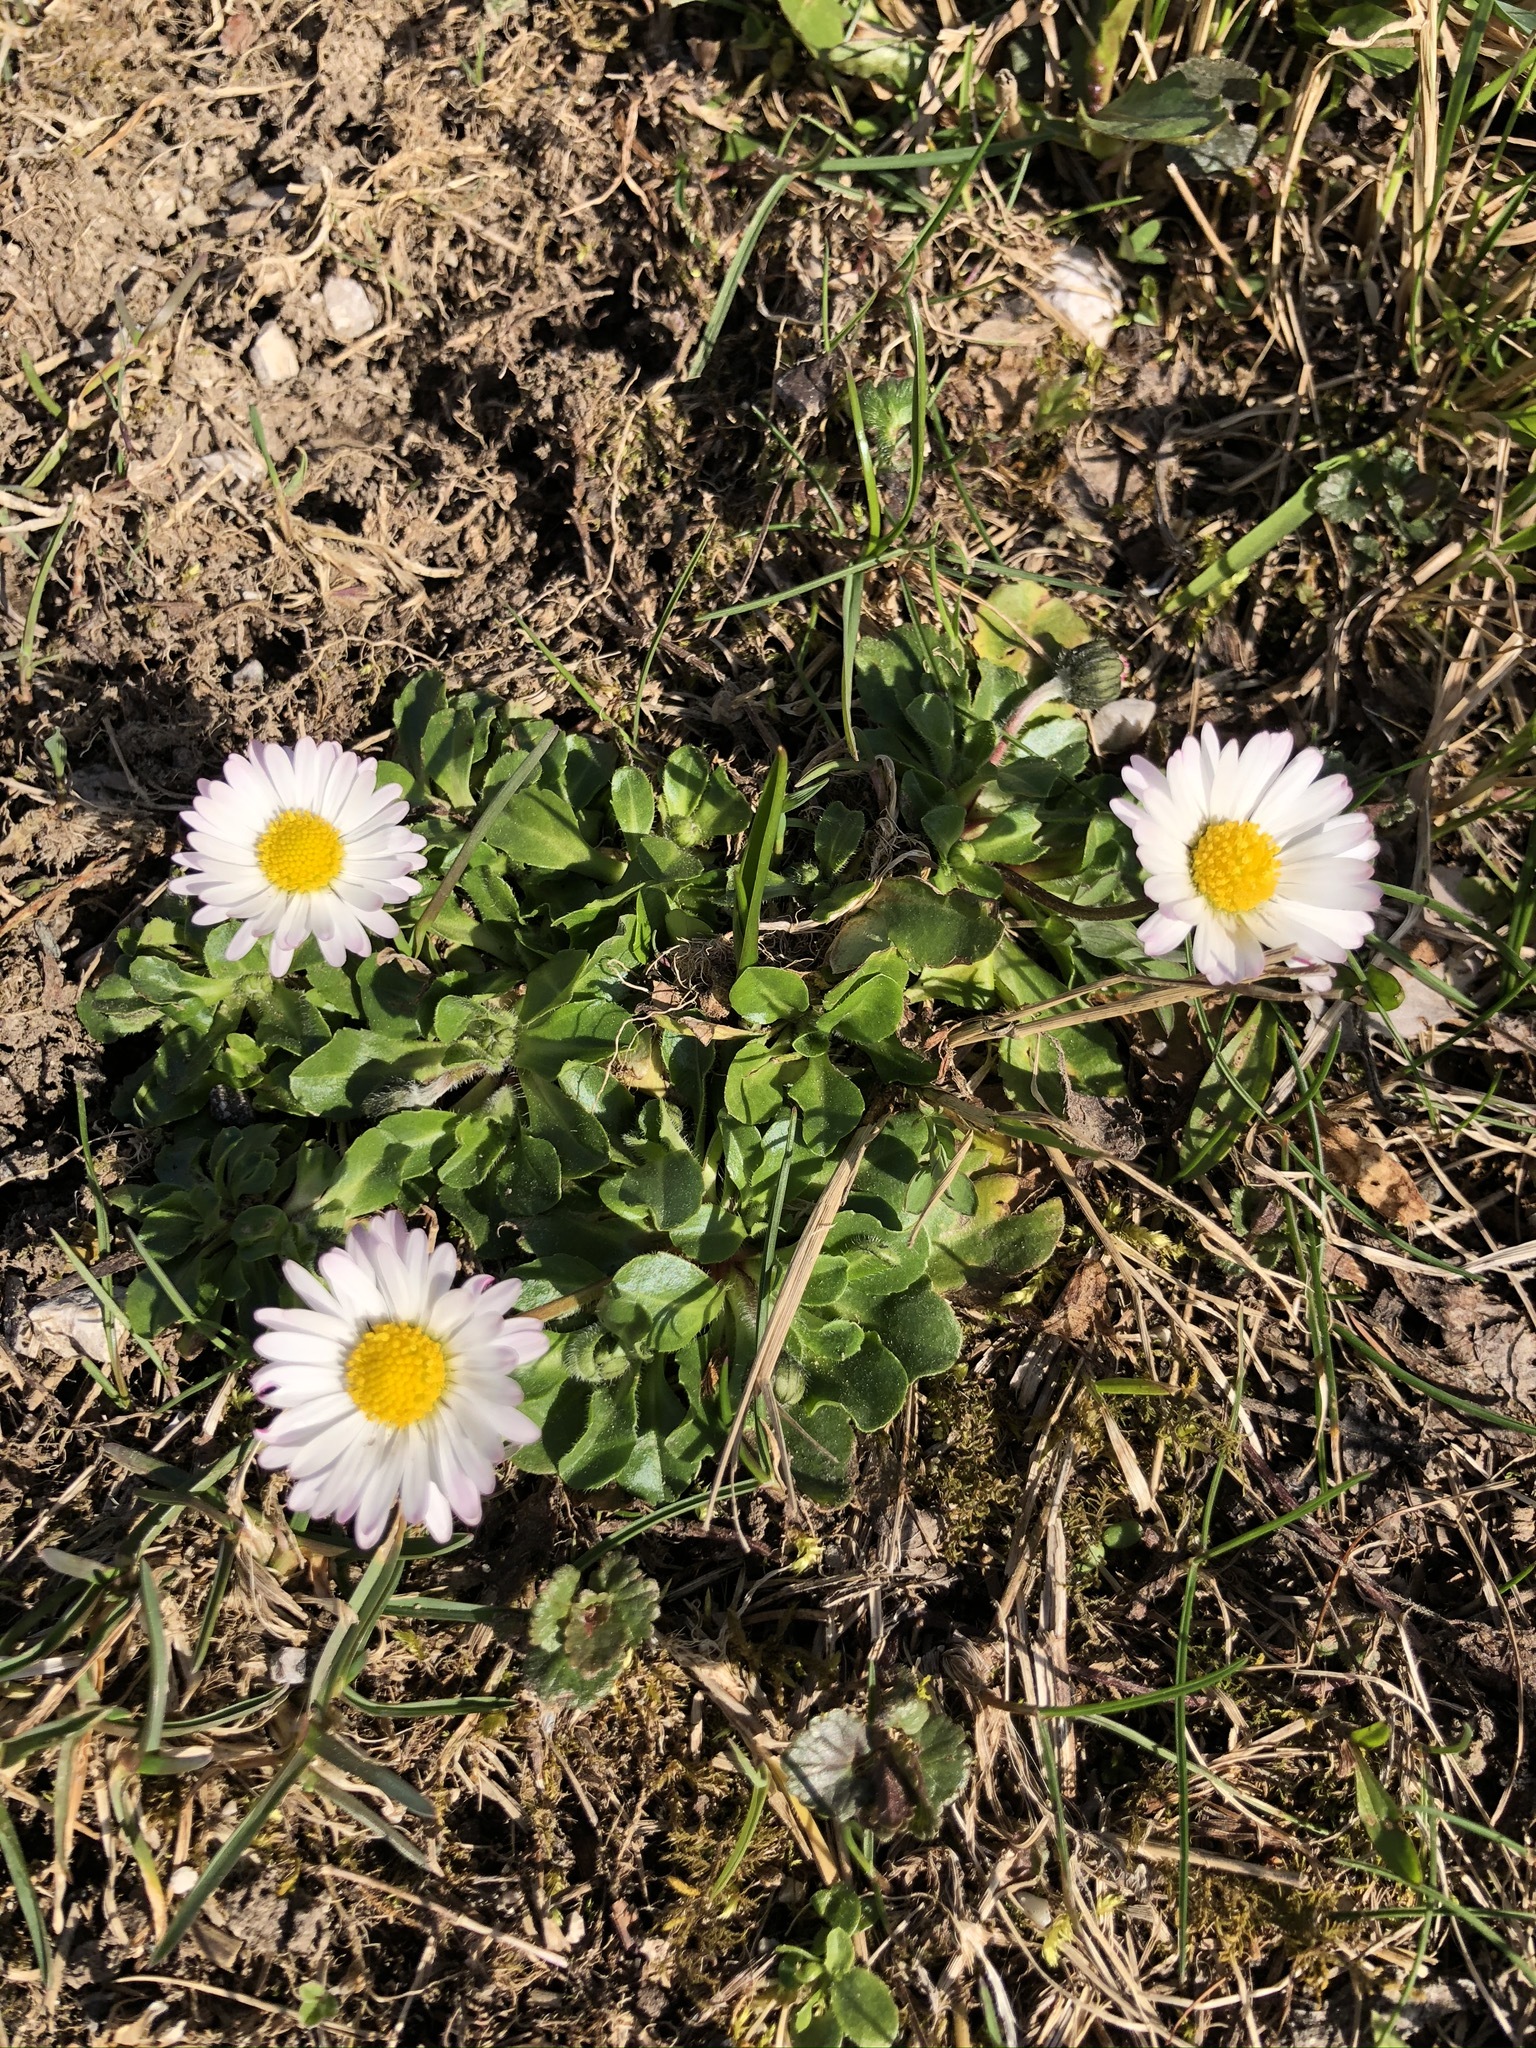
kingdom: Plantae
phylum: Tracheophyta
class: Magnoliopsida
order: Asterales
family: Asteraceae
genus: Bellis
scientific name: Bellis perennis
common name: Lawndaisy
